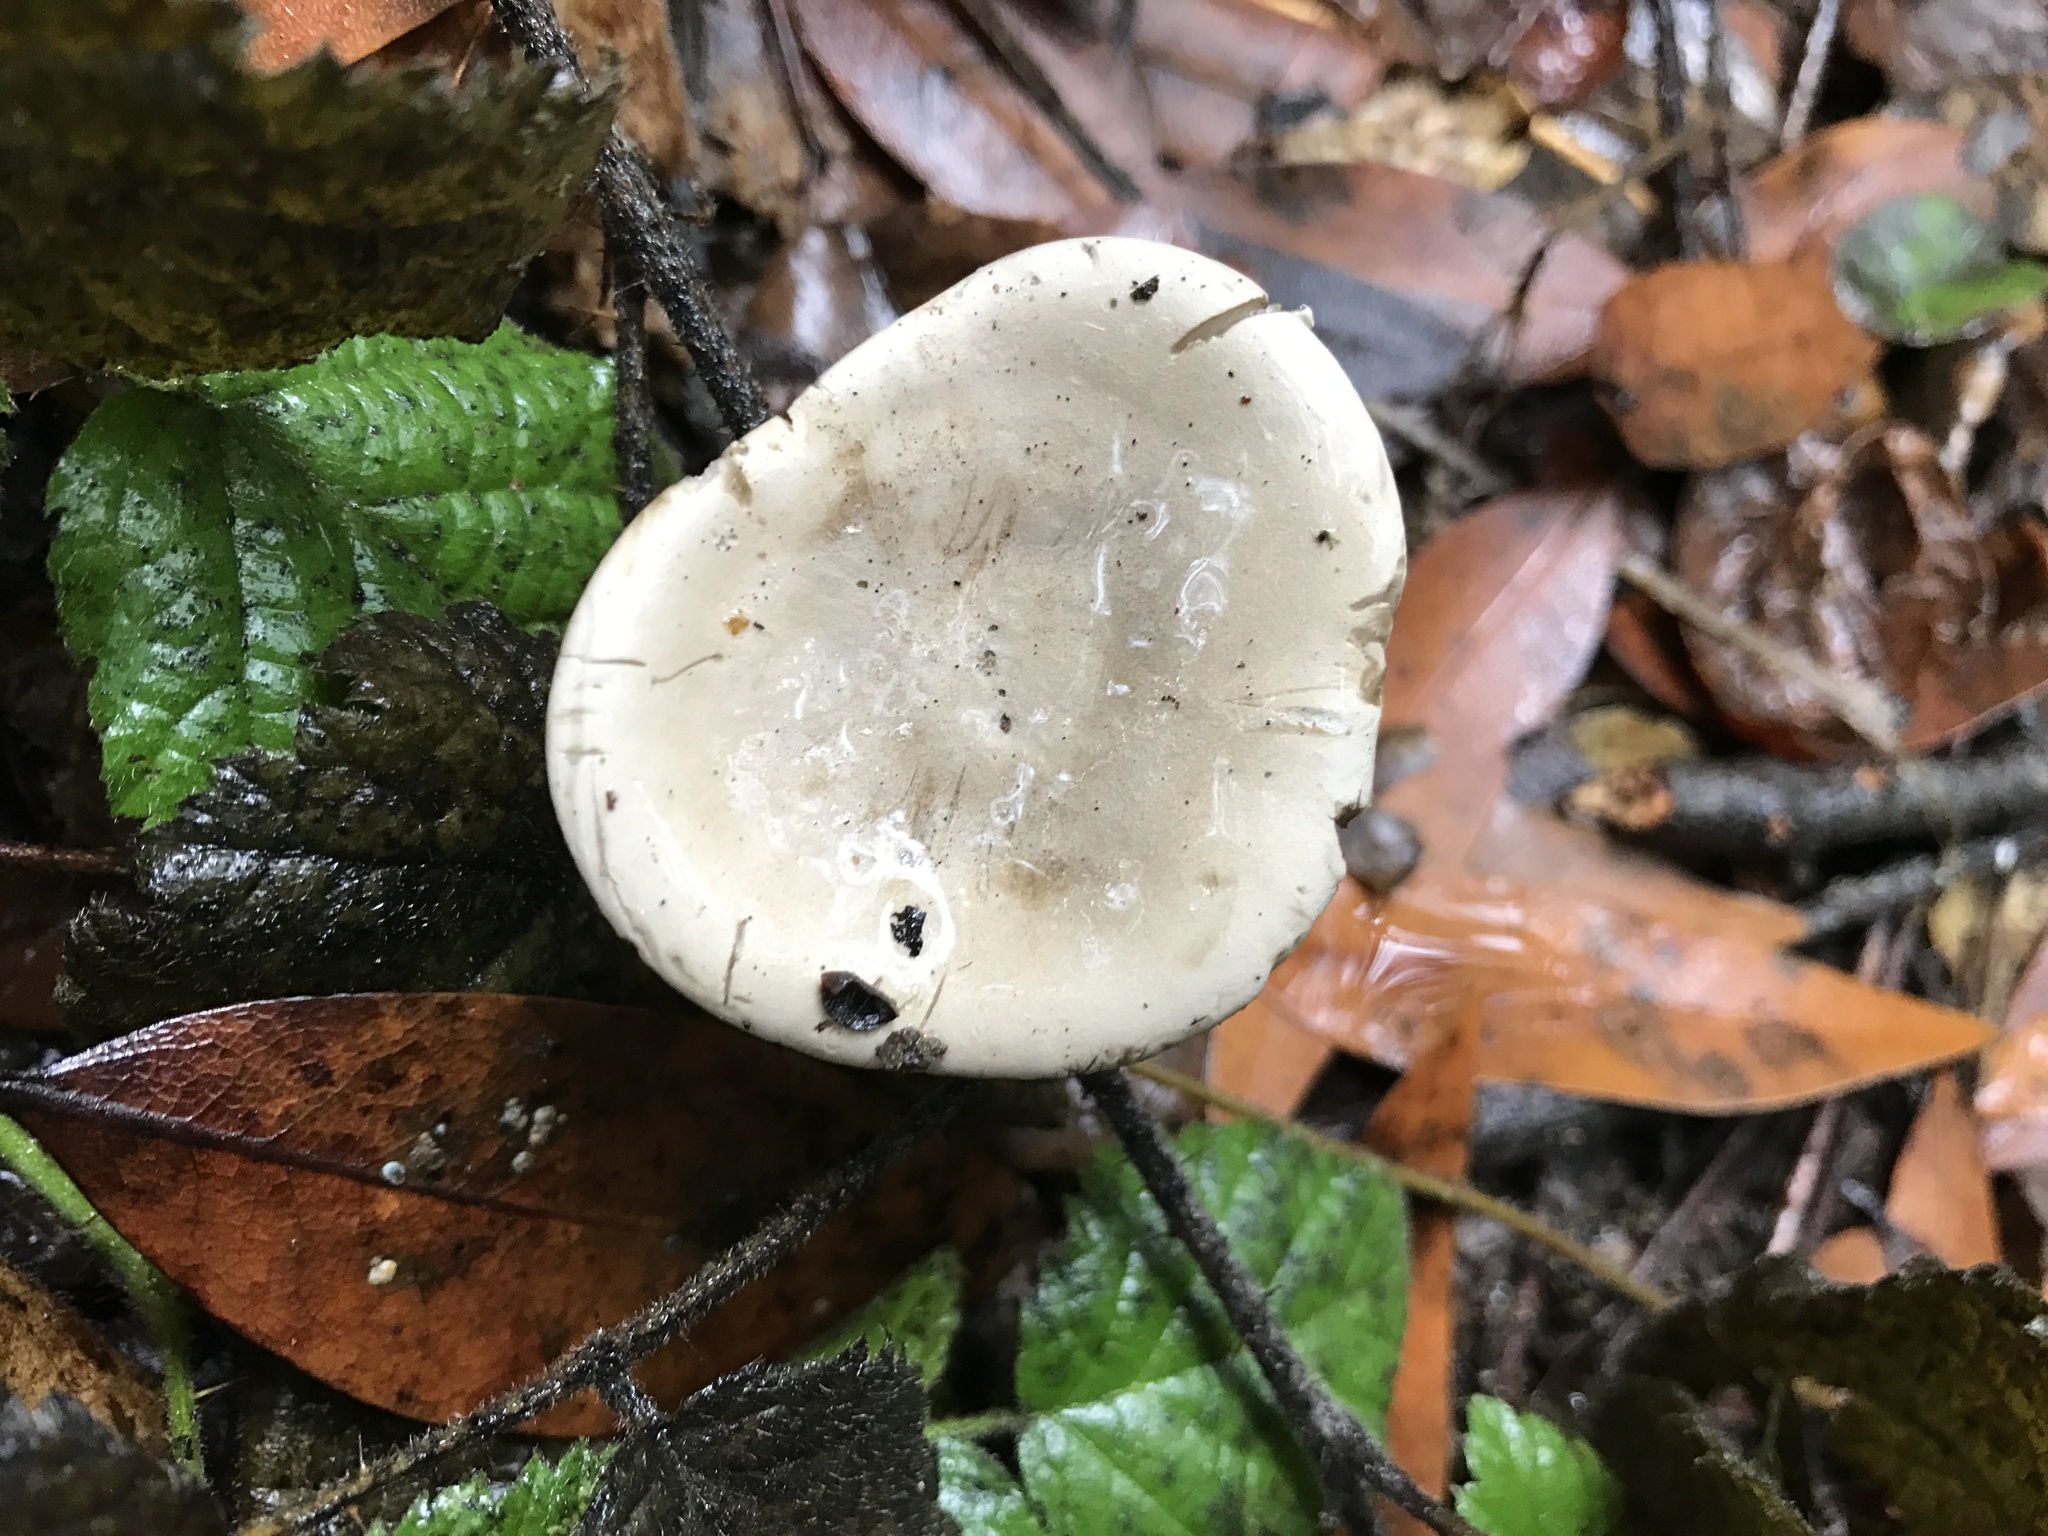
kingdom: Fungi
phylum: Basidiomycota
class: Agaricomycetes
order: Agaricales
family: Entolomataceae
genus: Clitopilus
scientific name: Clitopilus prunulus
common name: The miller
